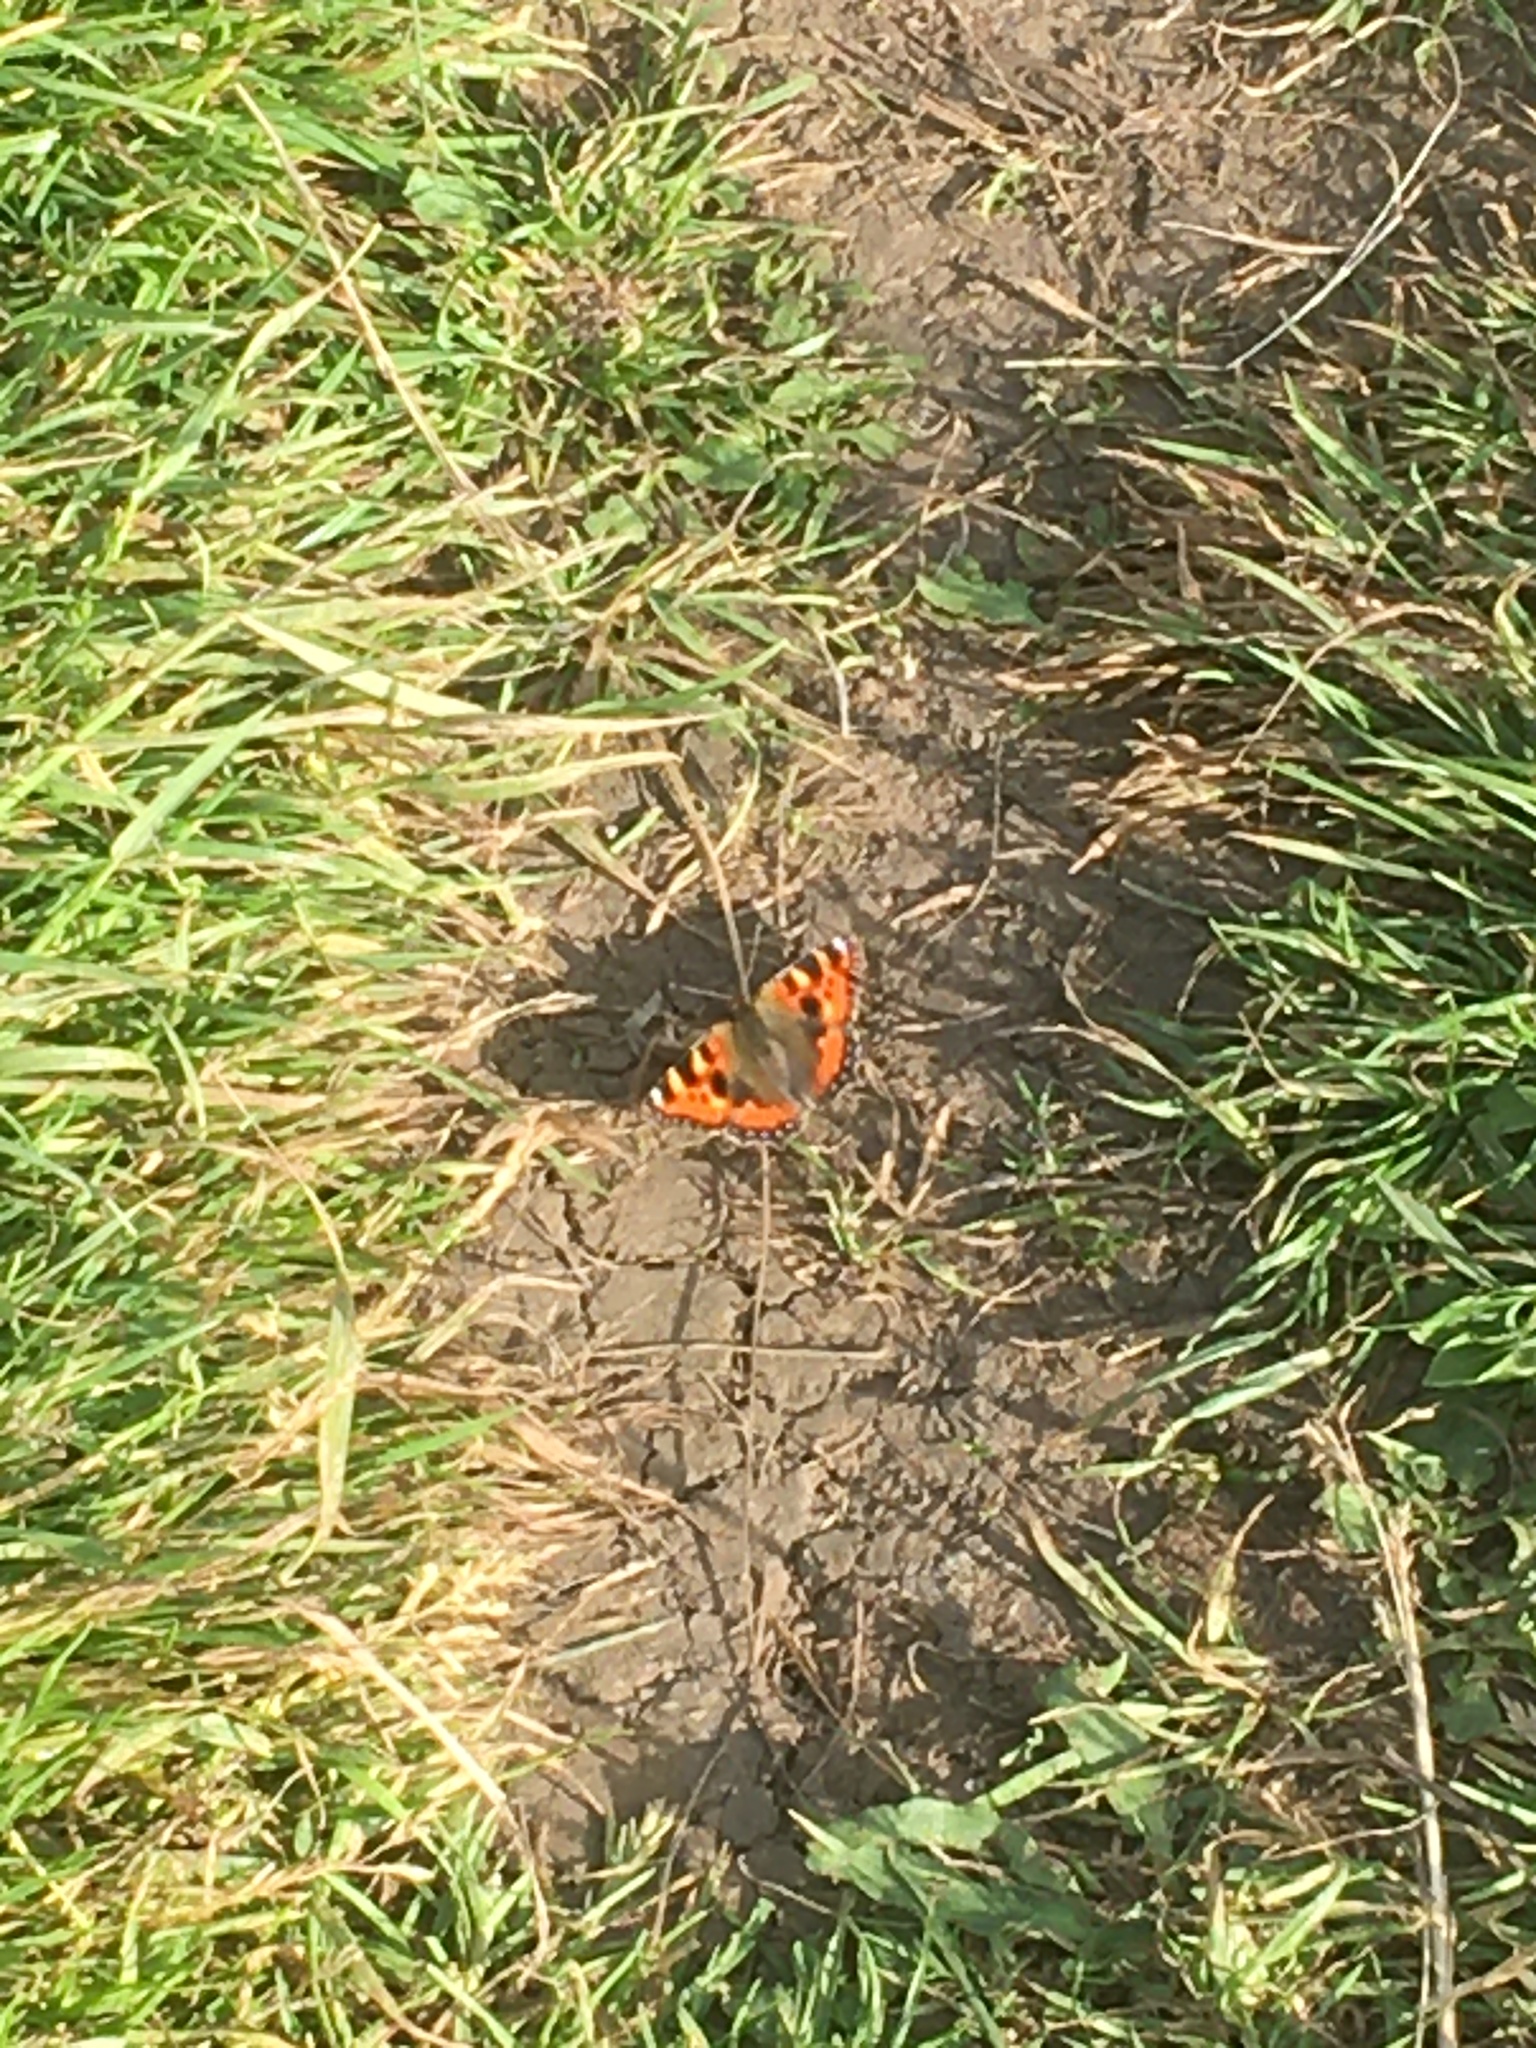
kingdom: Animalia
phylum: Arthropoda
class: Insecta
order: Lepidoptera
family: Nymphalidae
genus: Aglais
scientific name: Aglais urticae
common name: Small tortoiseshell
